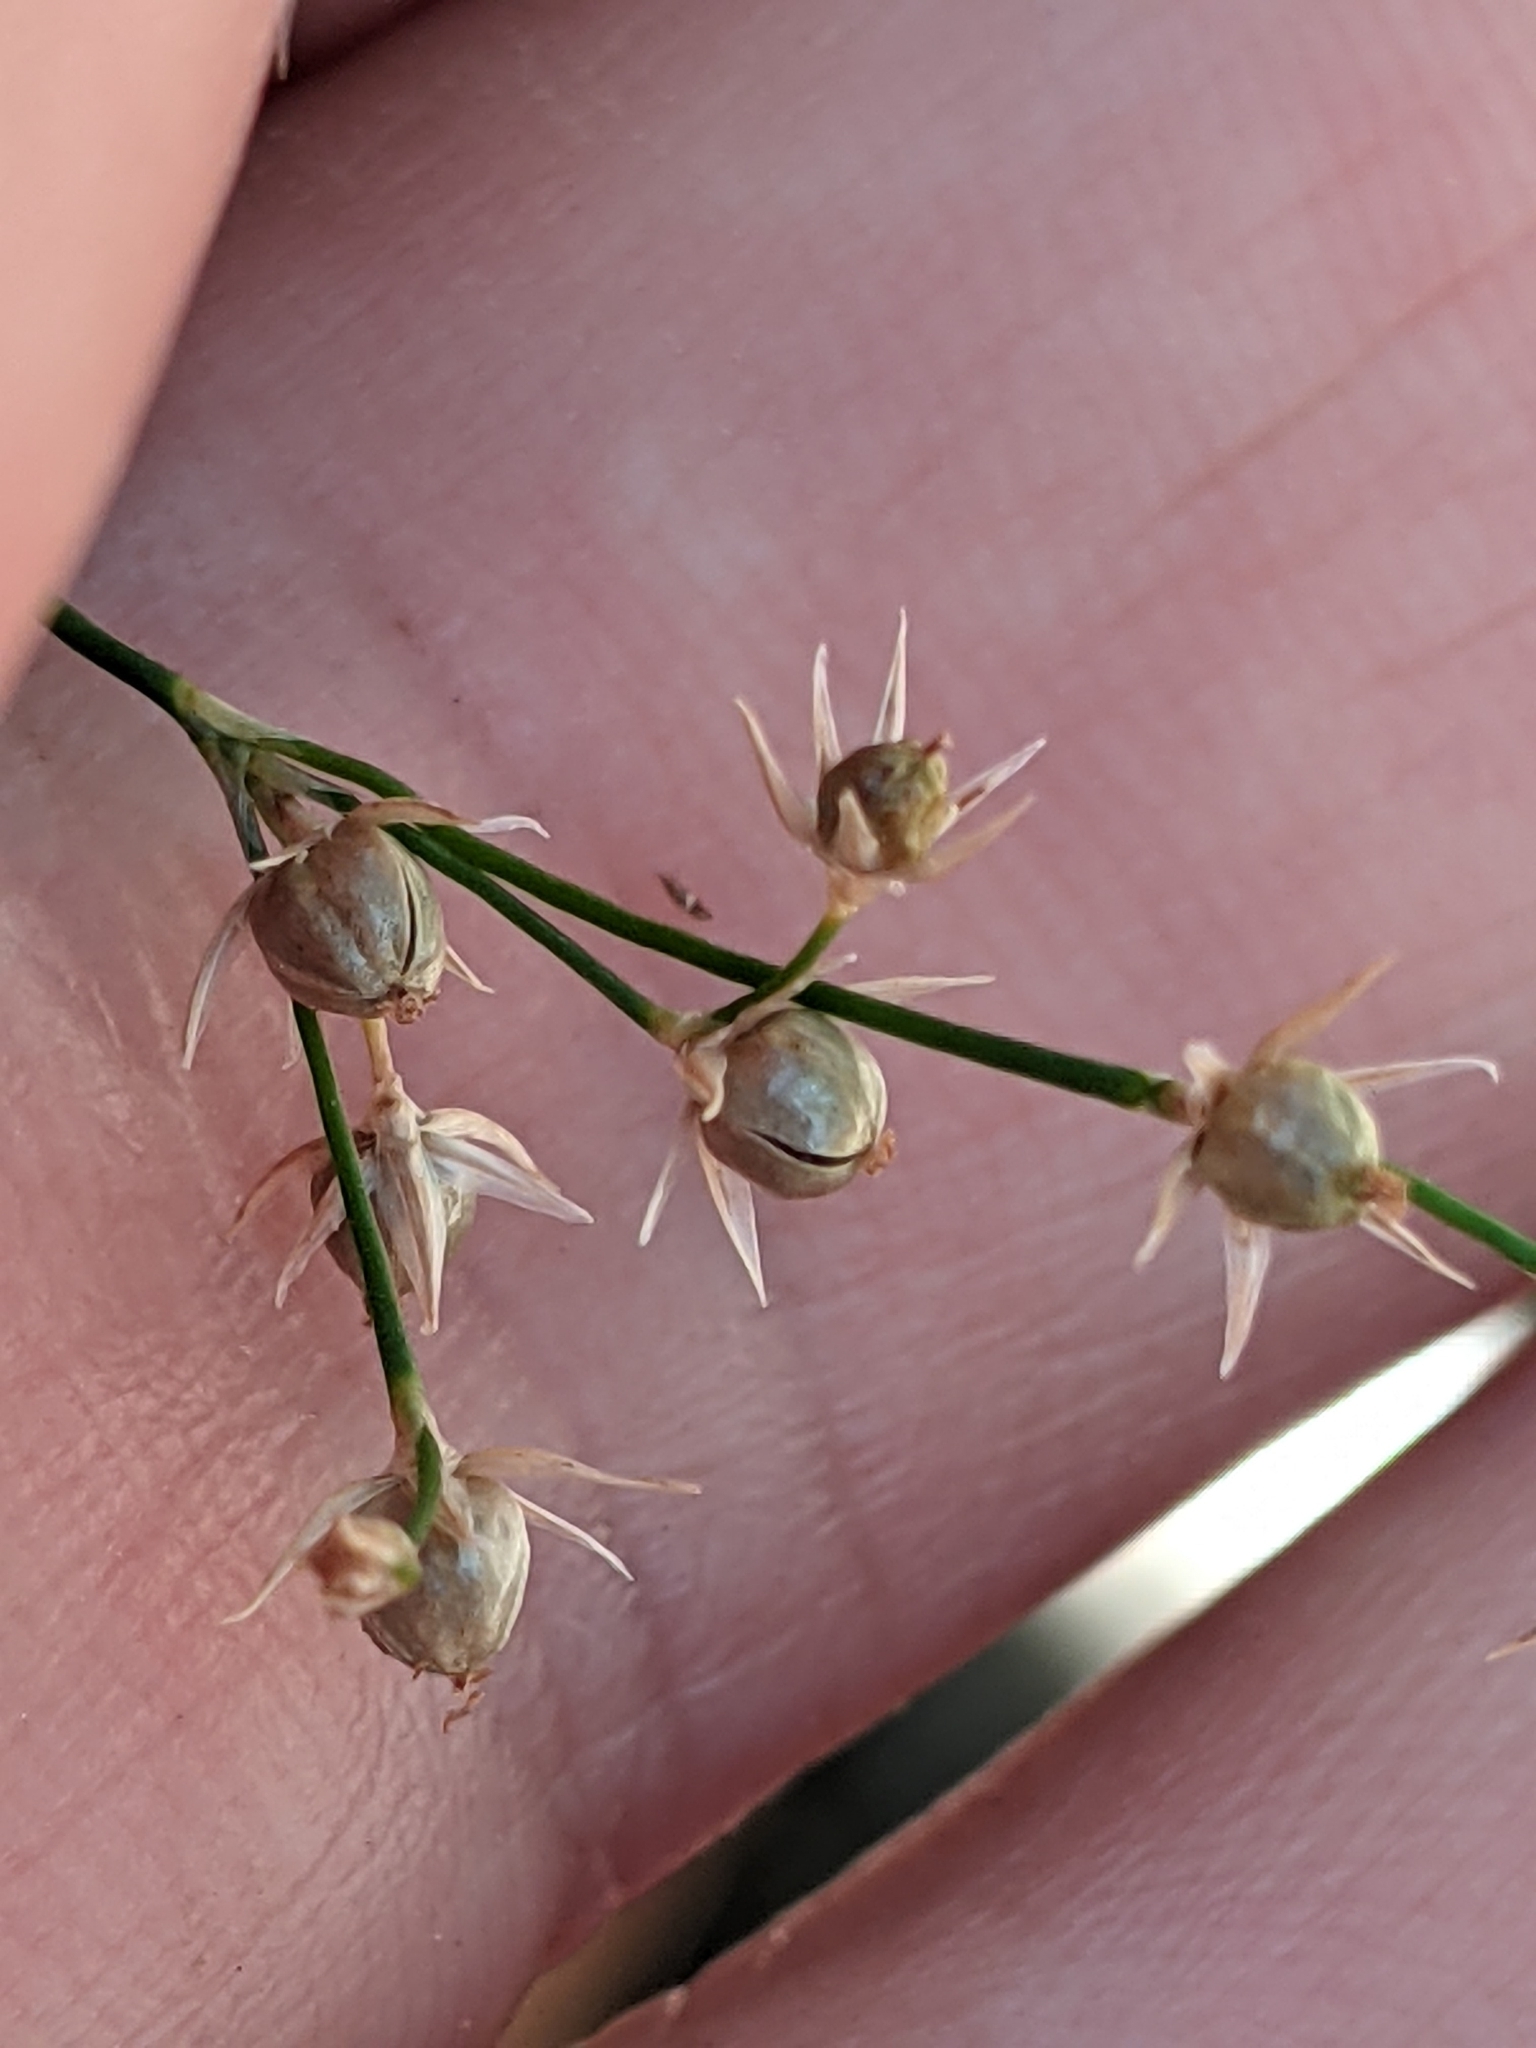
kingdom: Plantae
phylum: Tracheophyta
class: Liliopsida
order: Poales
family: Juncaceae
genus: Juncus
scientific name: Juncus patens
